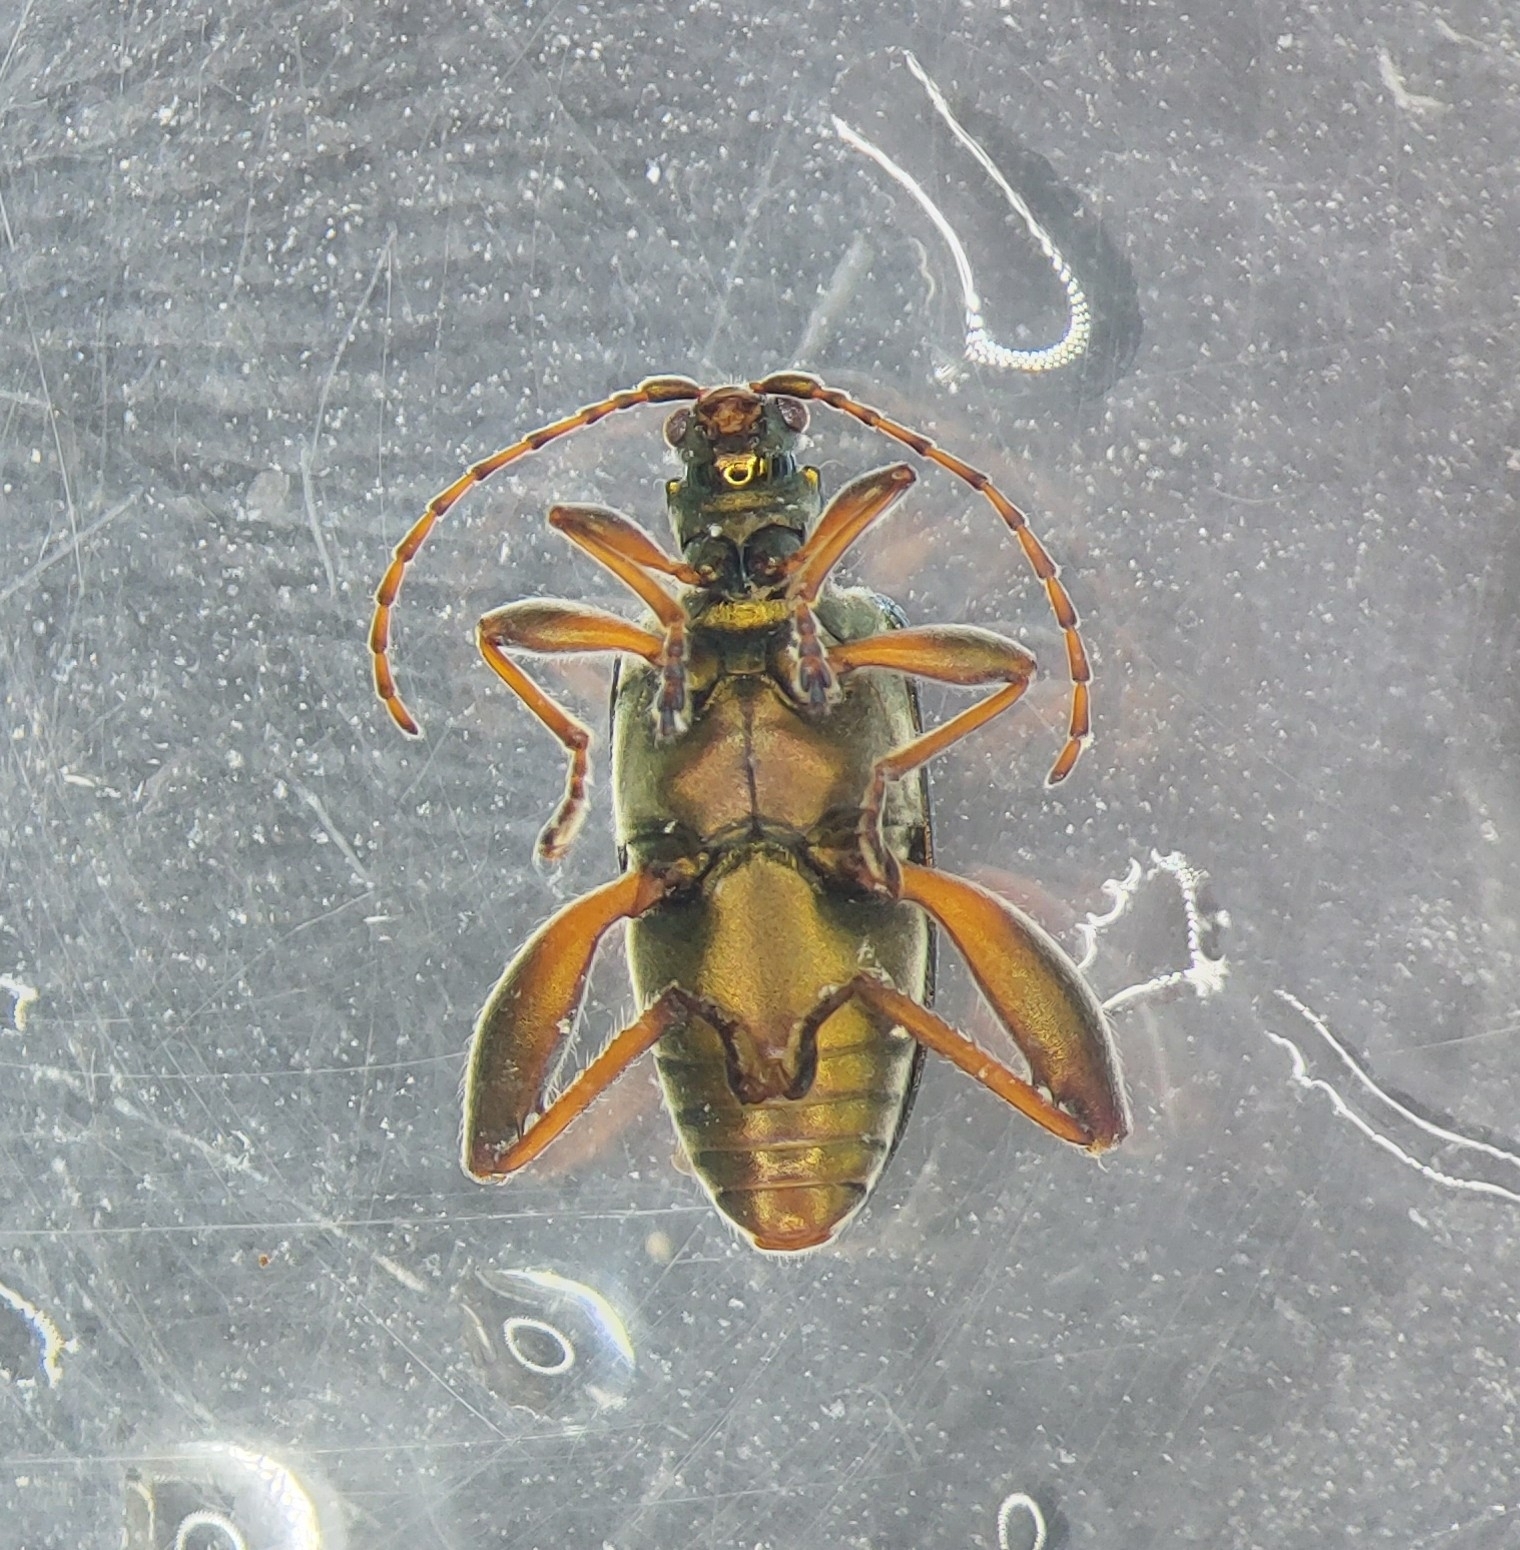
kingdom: Animalia
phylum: Arthropoda
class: Insecta
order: Coleoptera
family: Chrysomelidae
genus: Donacia
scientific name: Donacia versicolorea
